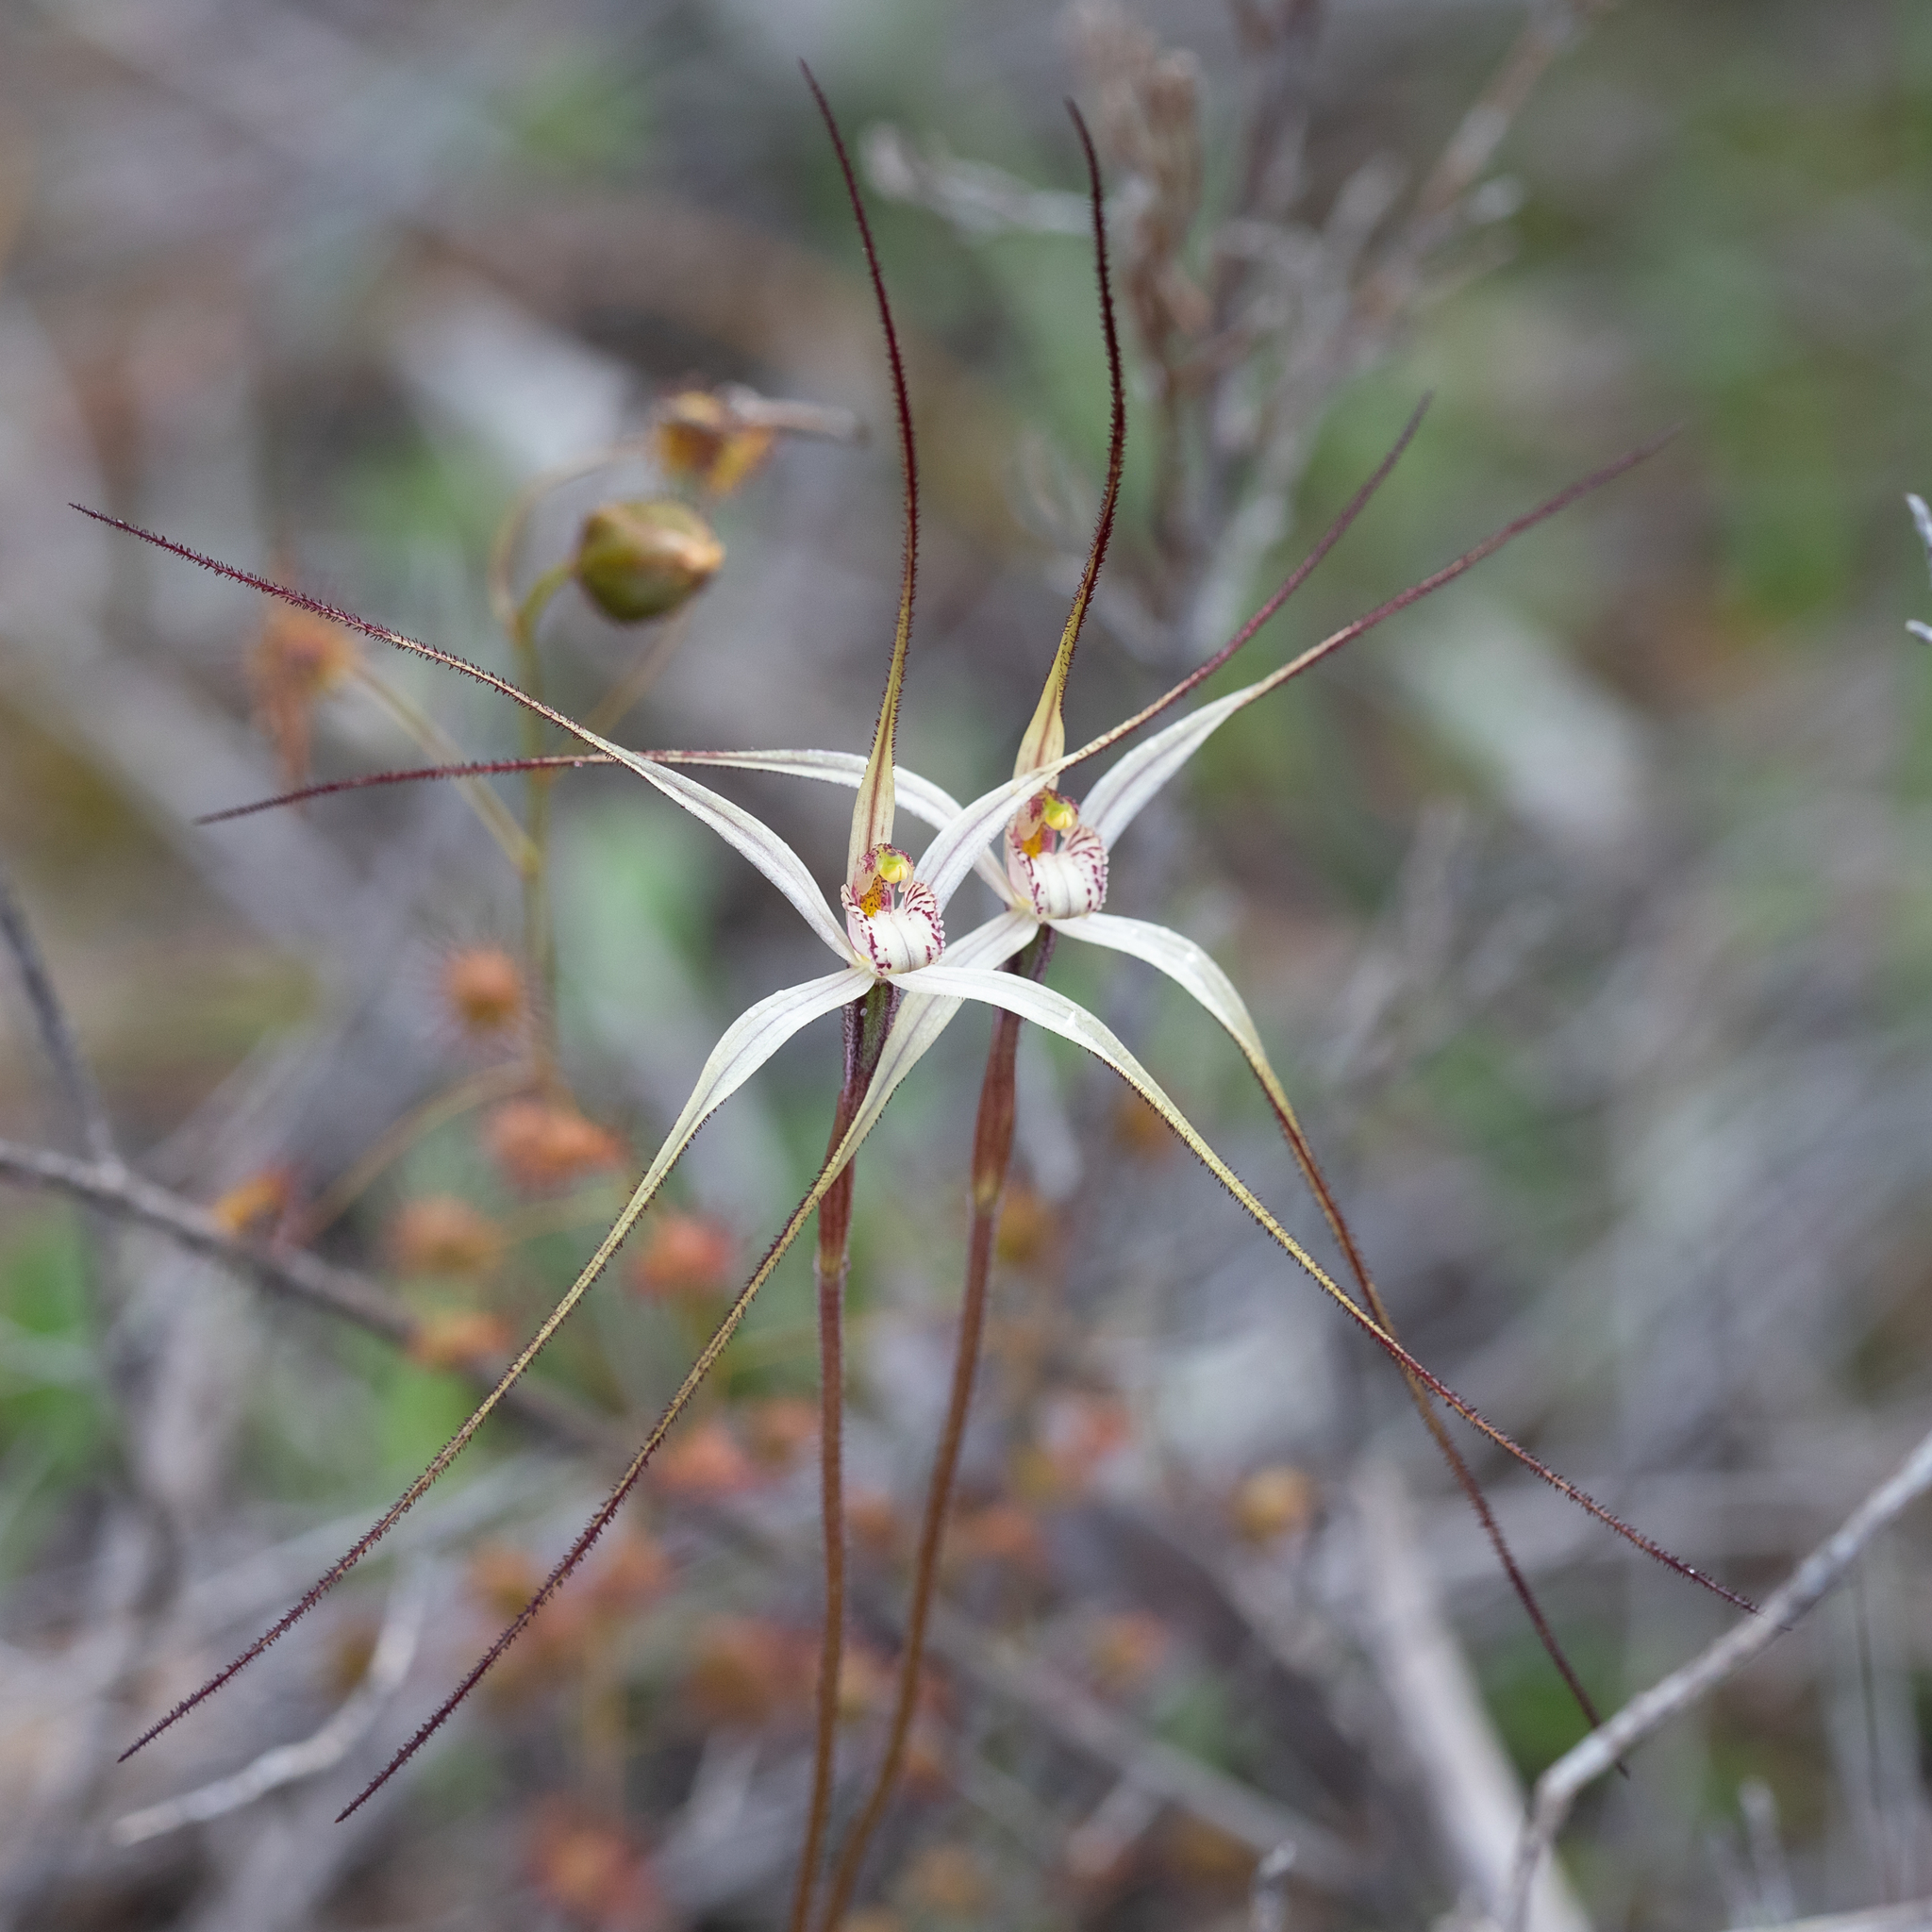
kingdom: Plantae
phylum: Tracheophyta
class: Liliopsida
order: Asparagales
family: Orchidaceae
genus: Caladenia
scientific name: Caladenia capillata
